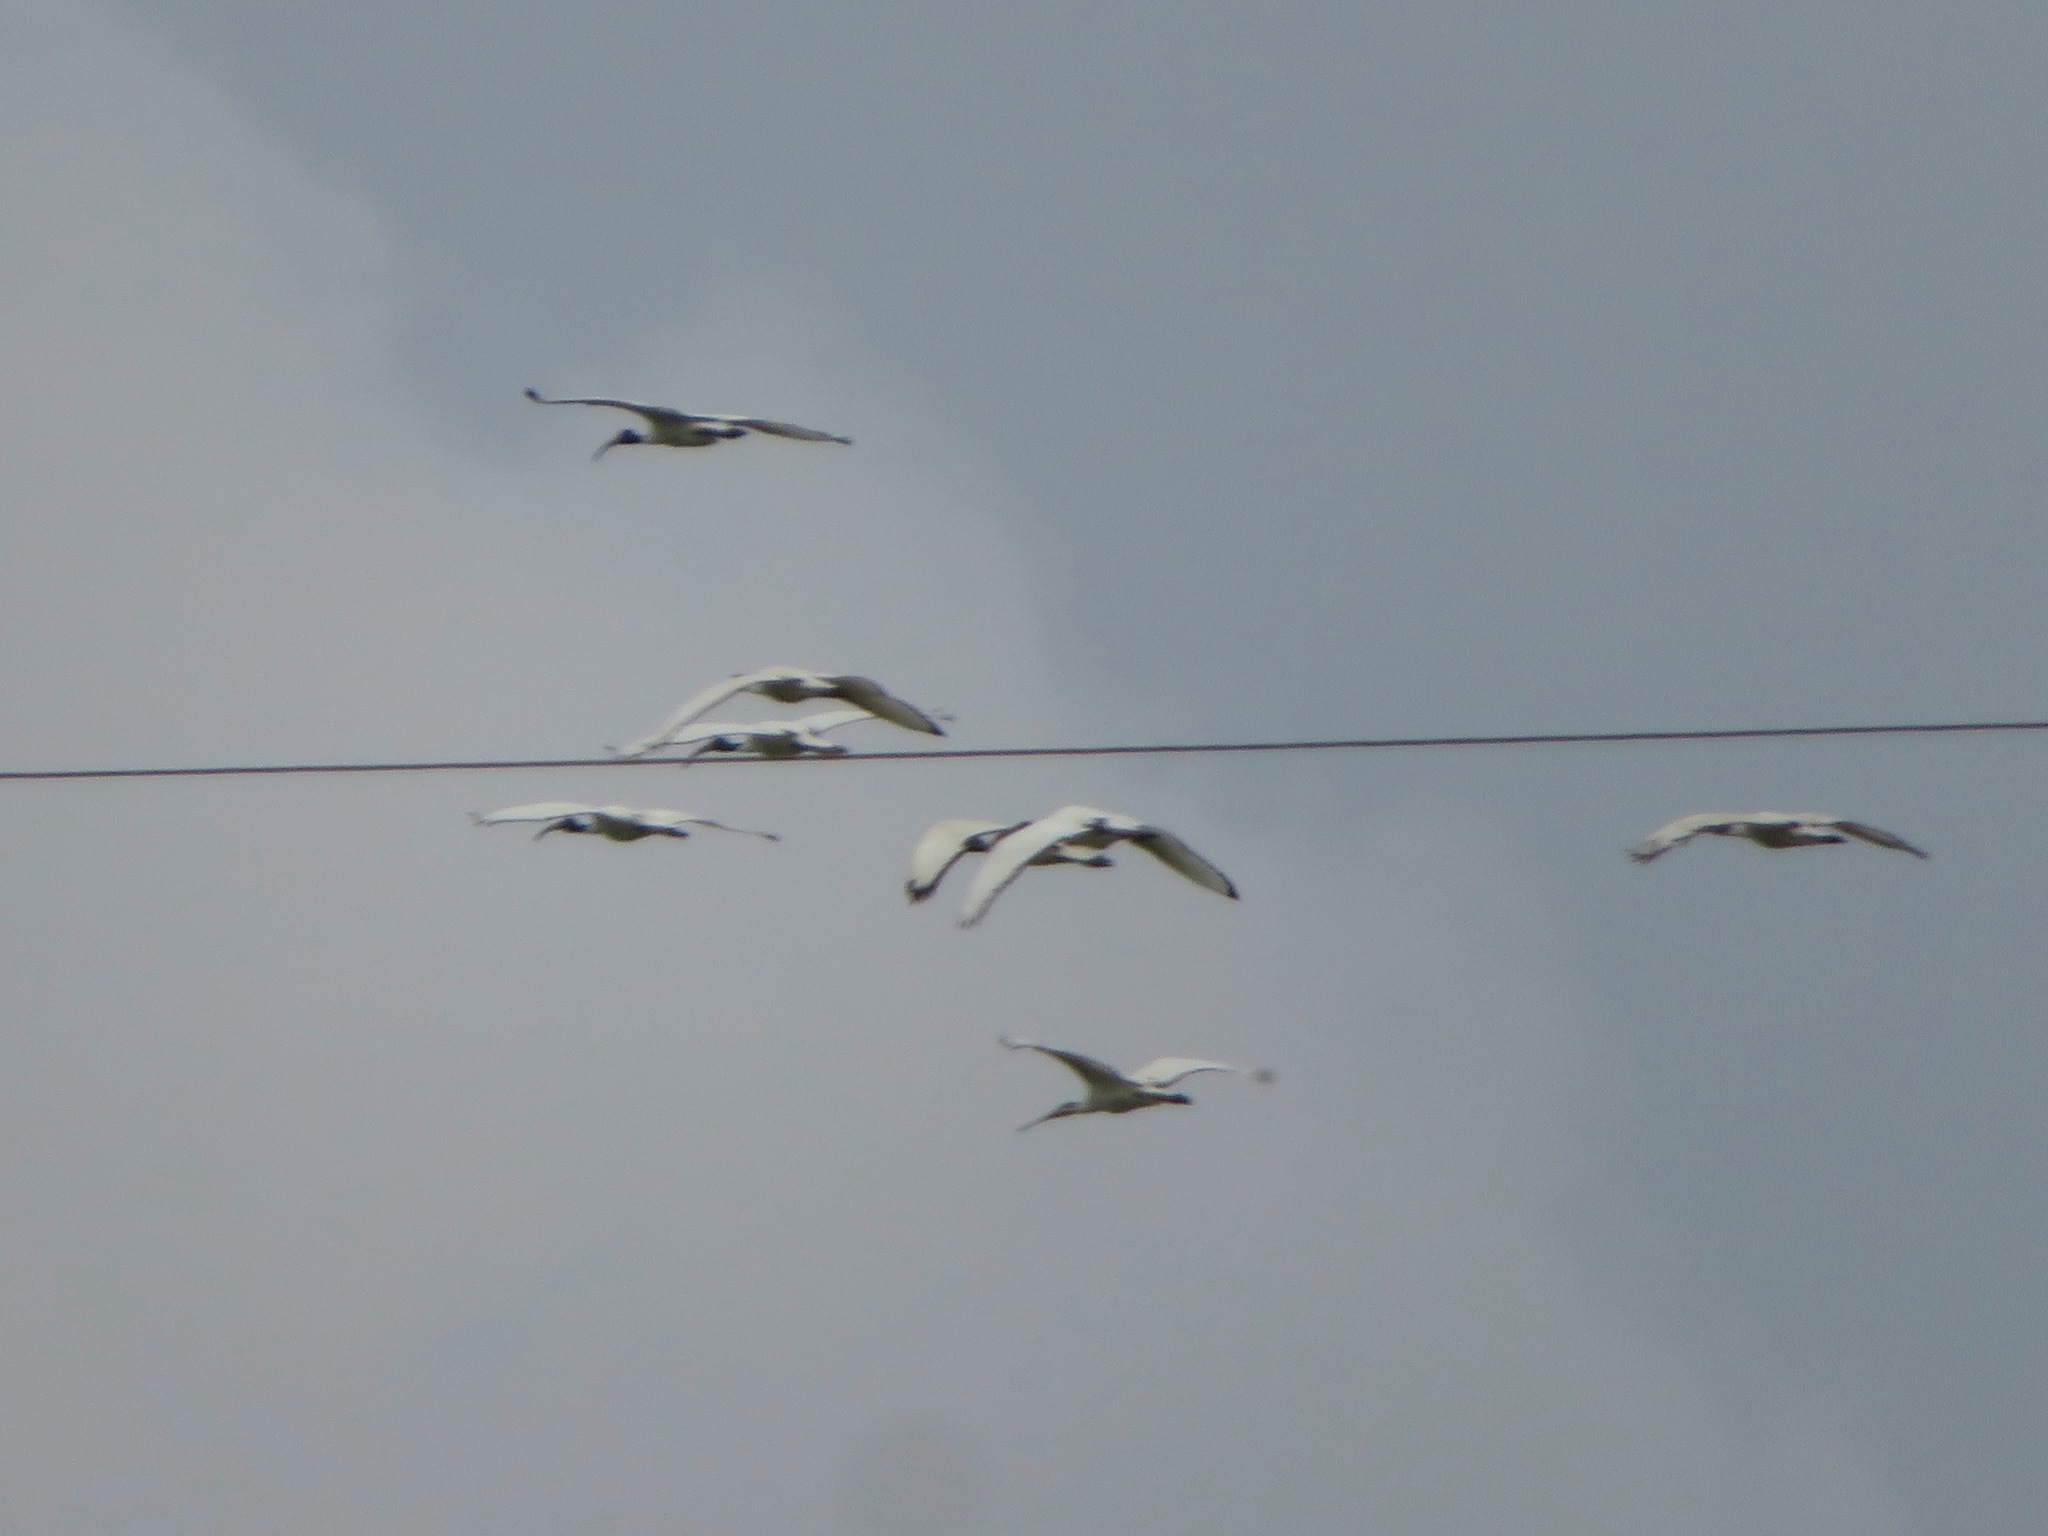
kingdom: Animalia
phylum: Chordata
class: Aves
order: Pelecaniformes
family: Threskiornithidae
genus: Threskiornis
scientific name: Threskiornis aethiopicus
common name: Sacred ibis
